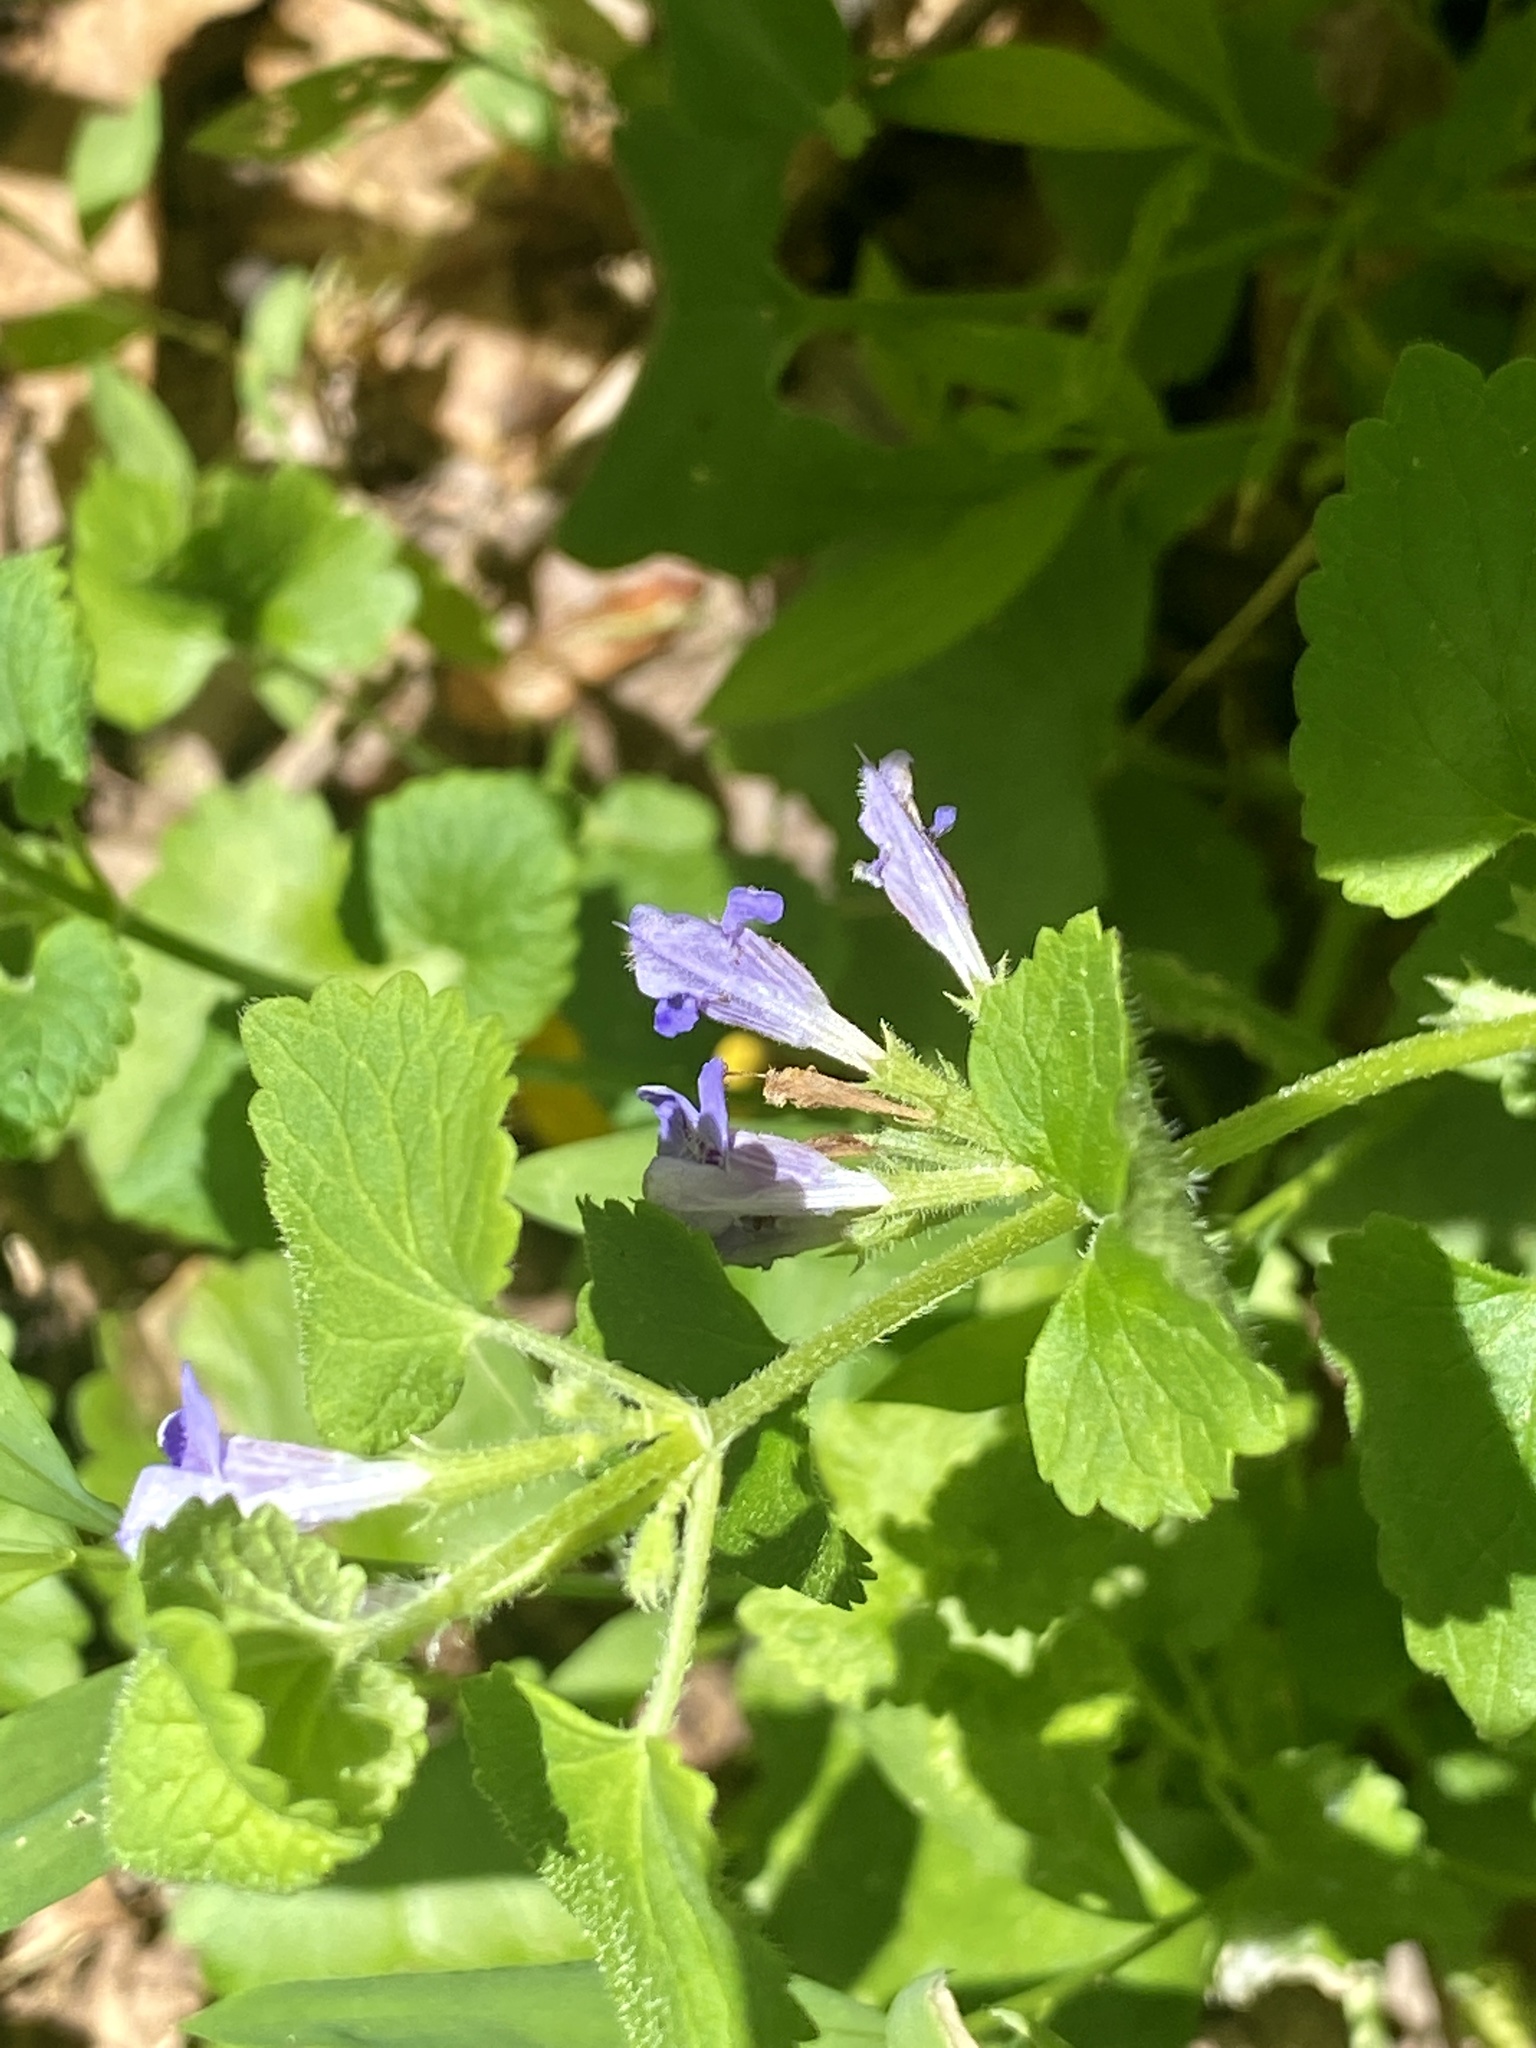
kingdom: Plantae
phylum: Tracheophyta
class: Magnoliopsida
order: Lamiales
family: Lamiaceae
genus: Glechoma
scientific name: Glechoma hederacea
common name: Ground ivy
